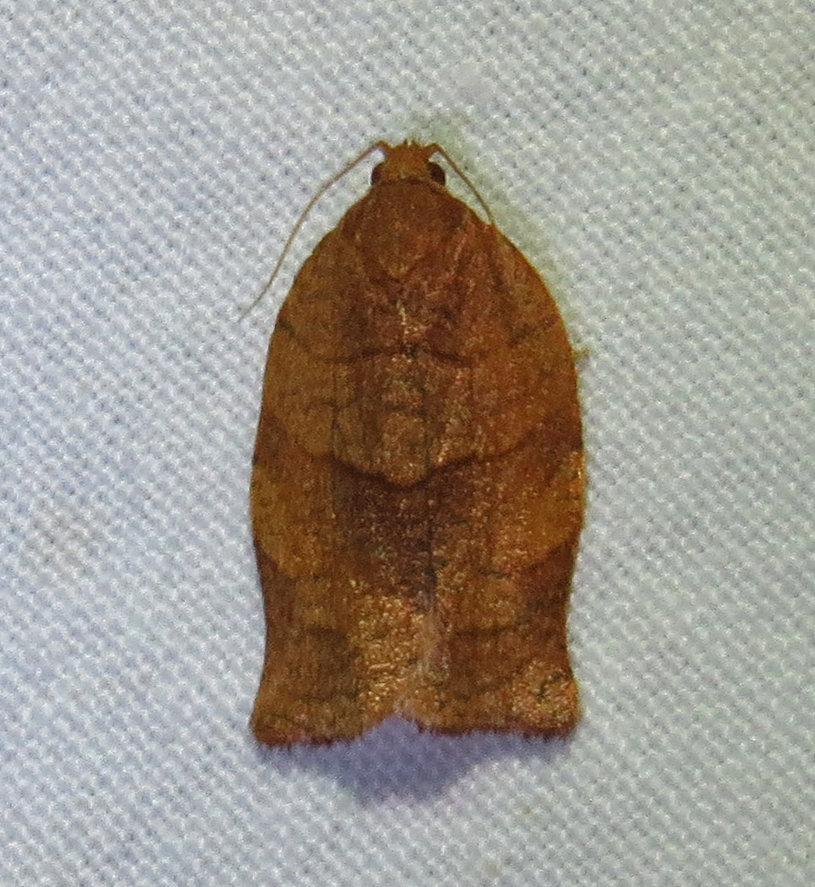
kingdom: Animalia
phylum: Arthropoda
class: Insecta
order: Lepidoptera
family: Tortricidae
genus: Choristoneura
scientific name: Choristoneura rosaceana
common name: Oblique-banded leafroller moth
